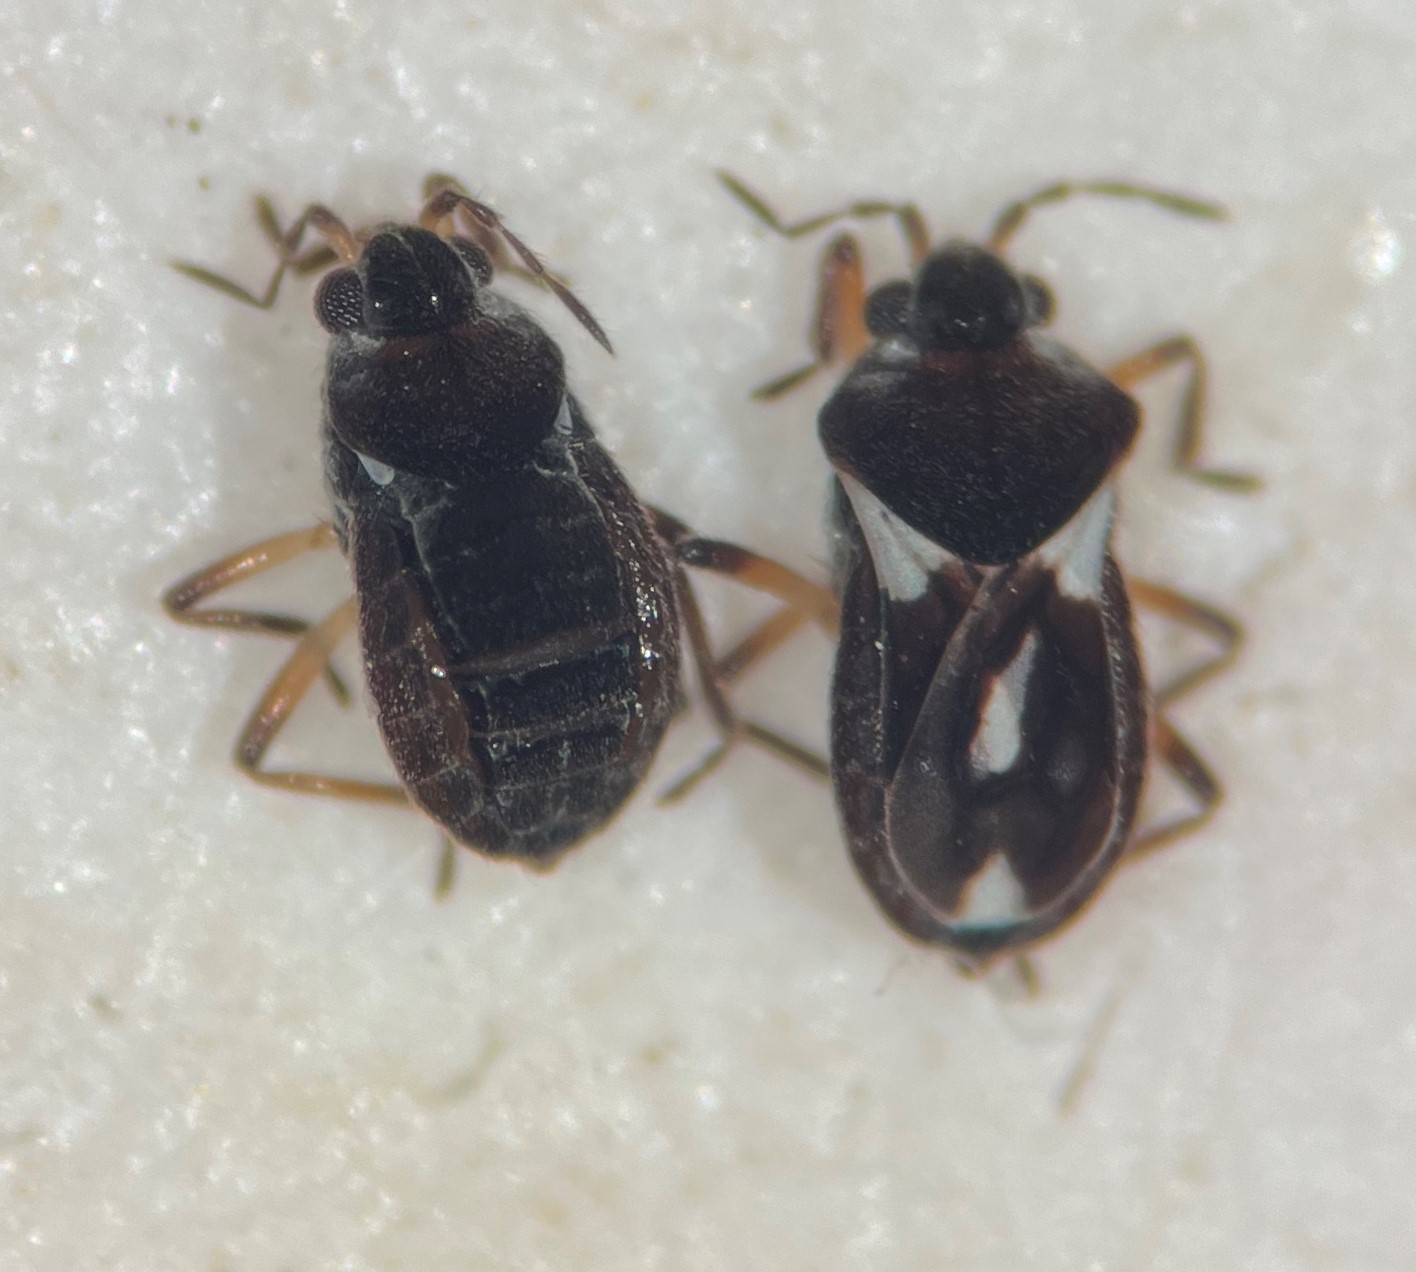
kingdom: Animalia
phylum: Arthropoda
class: Insecta
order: Hemiptera
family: Veliidae
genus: Microvelia
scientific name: Microvelia atrata
